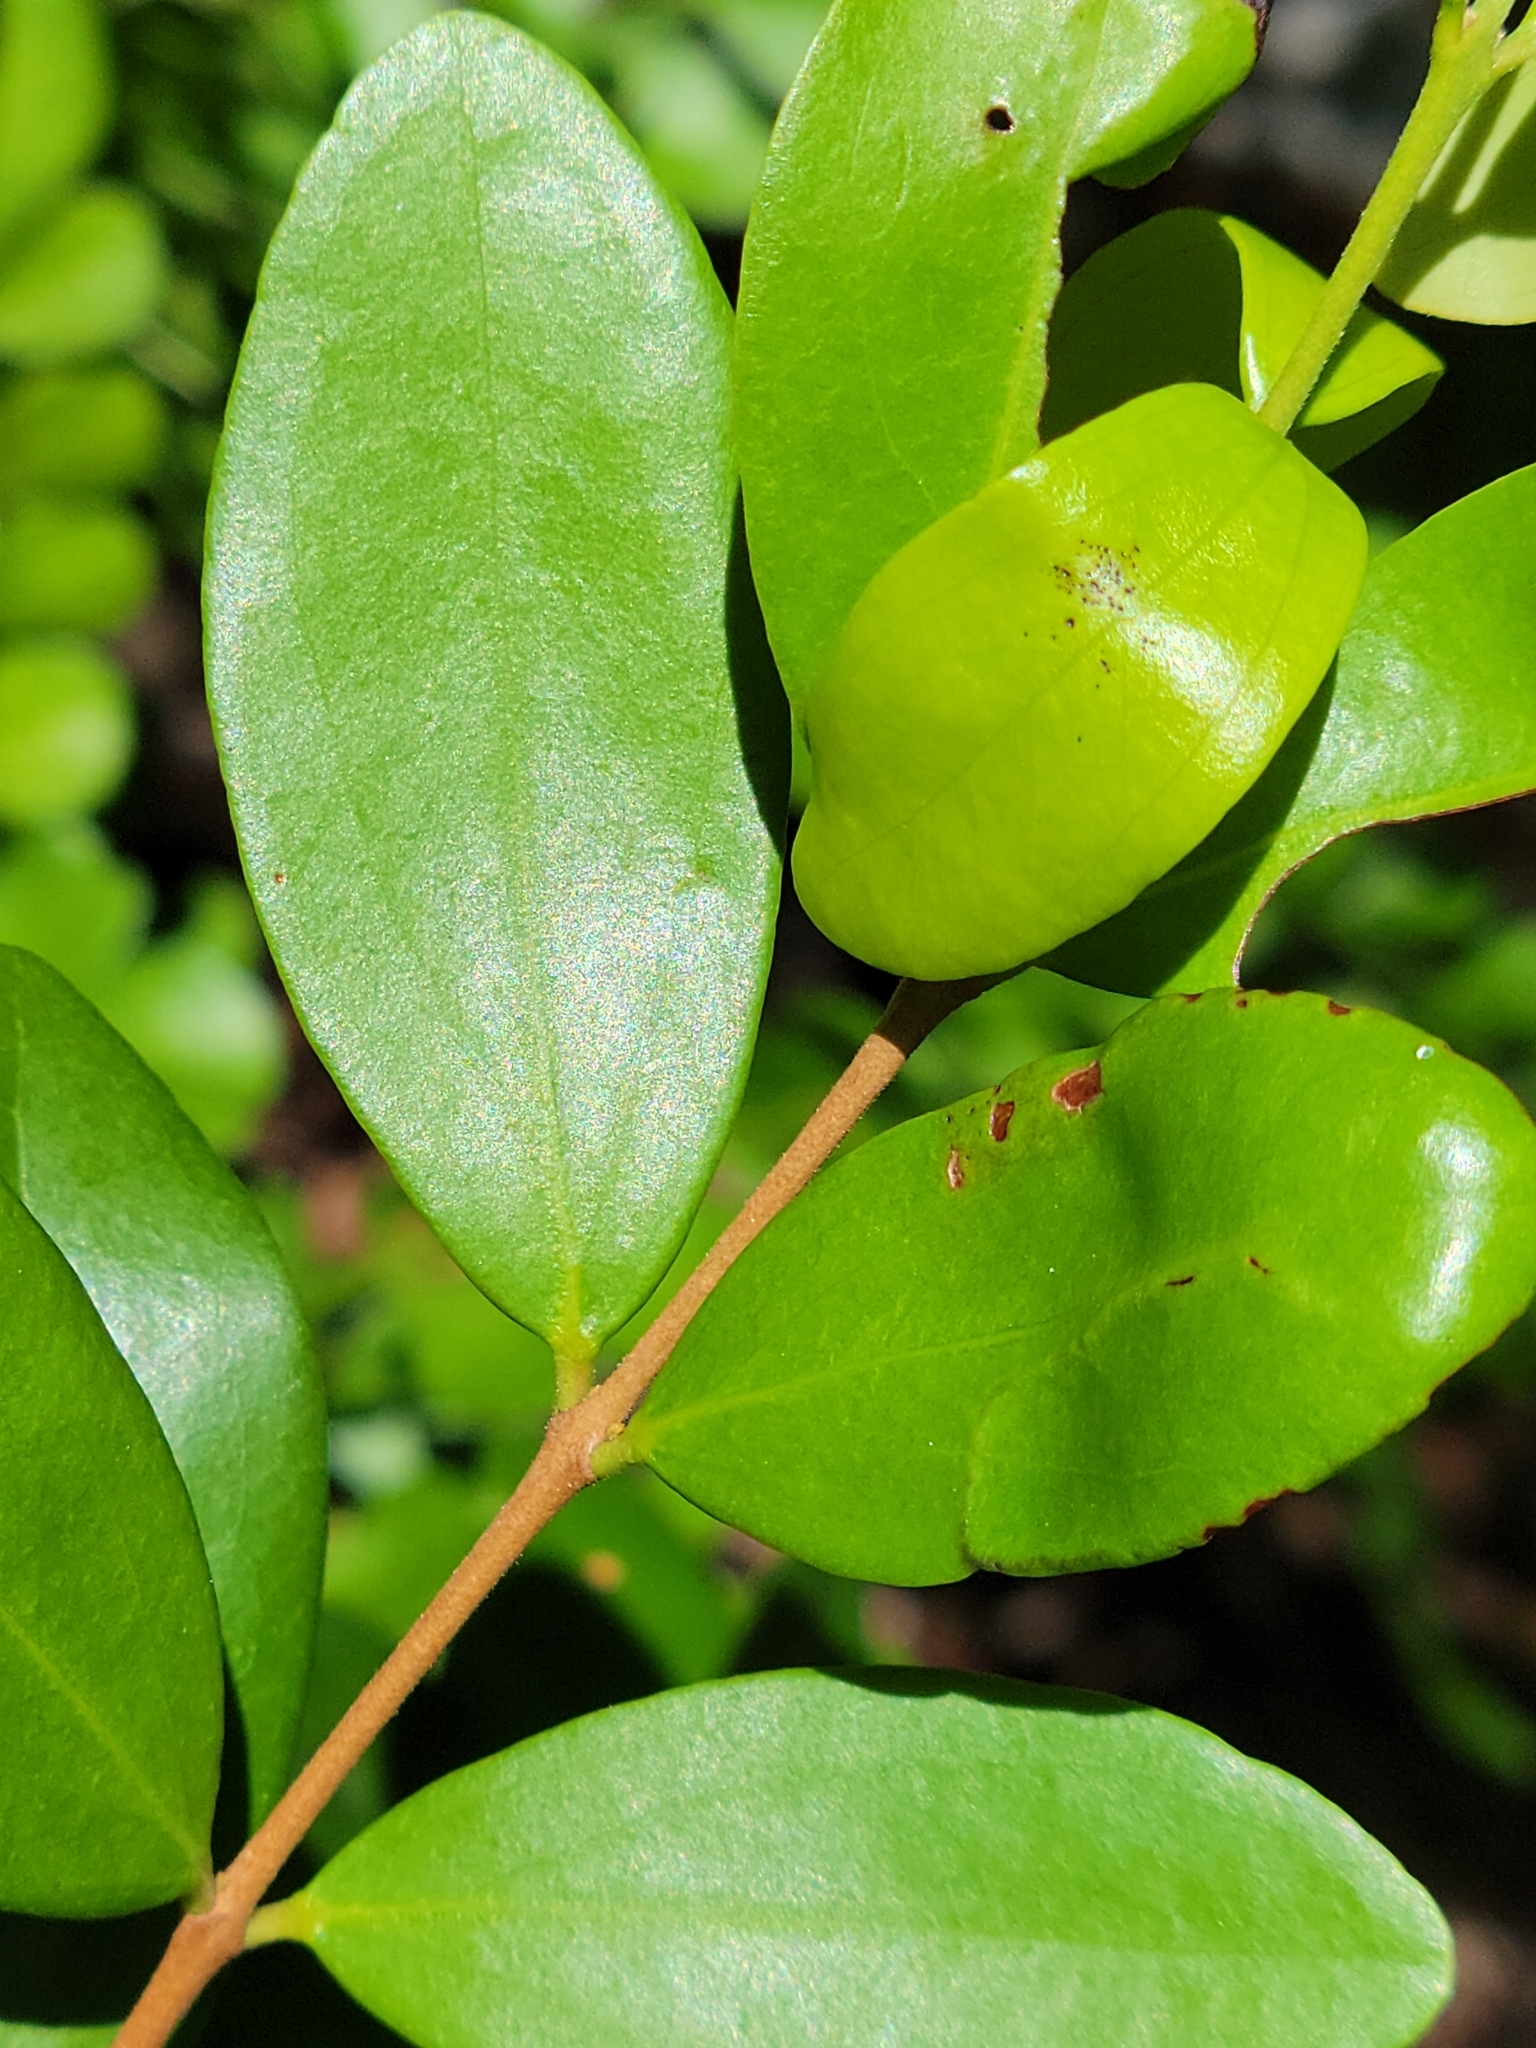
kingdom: Plantae
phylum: Tracheophyta
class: Magnoliopsida
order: Myrtales
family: Myrtaceae
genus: Eugenia
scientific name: Eugenia foetida
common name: White wattling
